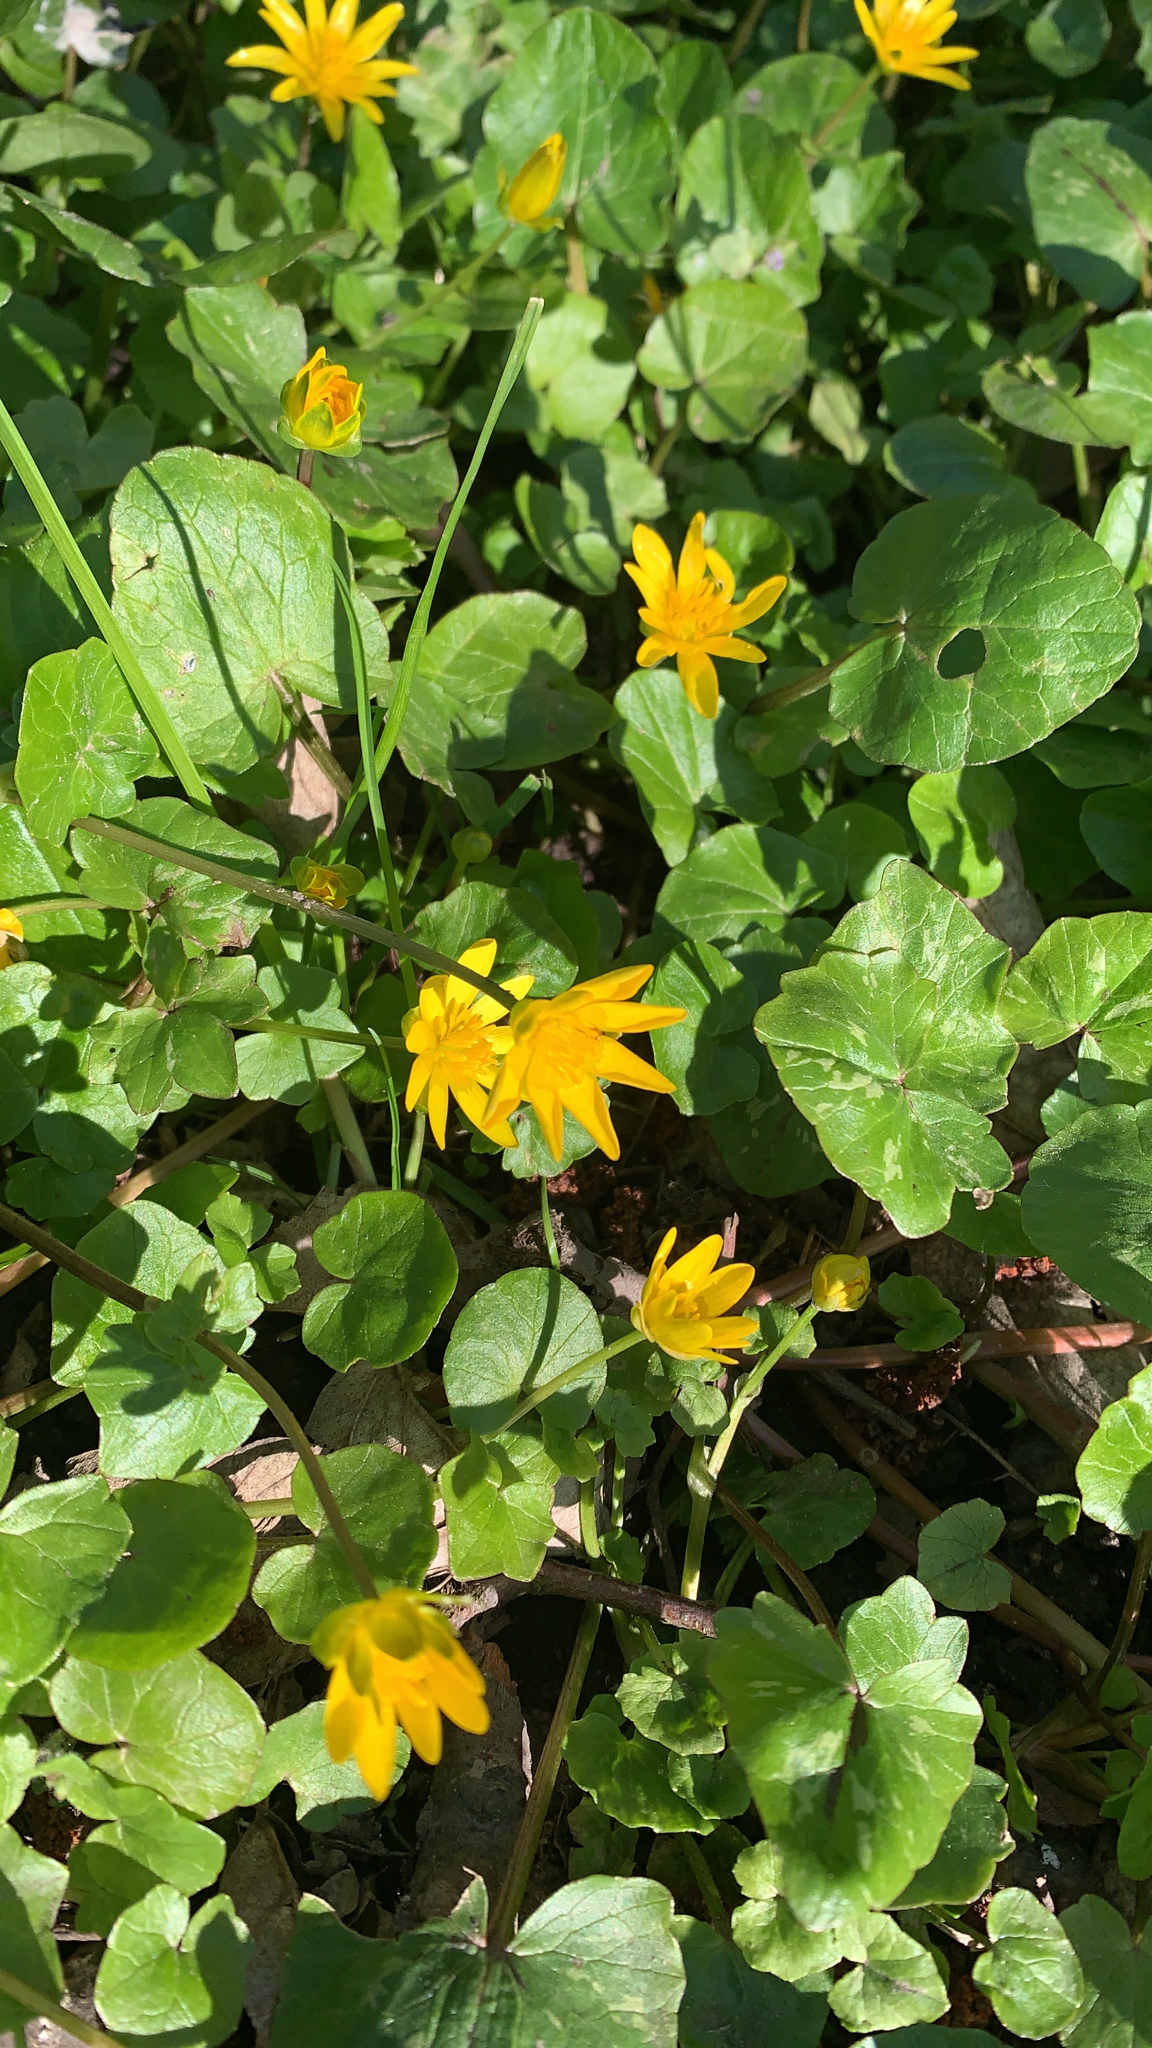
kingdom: Plantae
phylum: Tracheophyta
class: Magnoliopsida
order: Ranunculales
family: Ranunculaceae
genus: Ficaria
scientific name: Ficaria verna
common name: Lesser celandine
